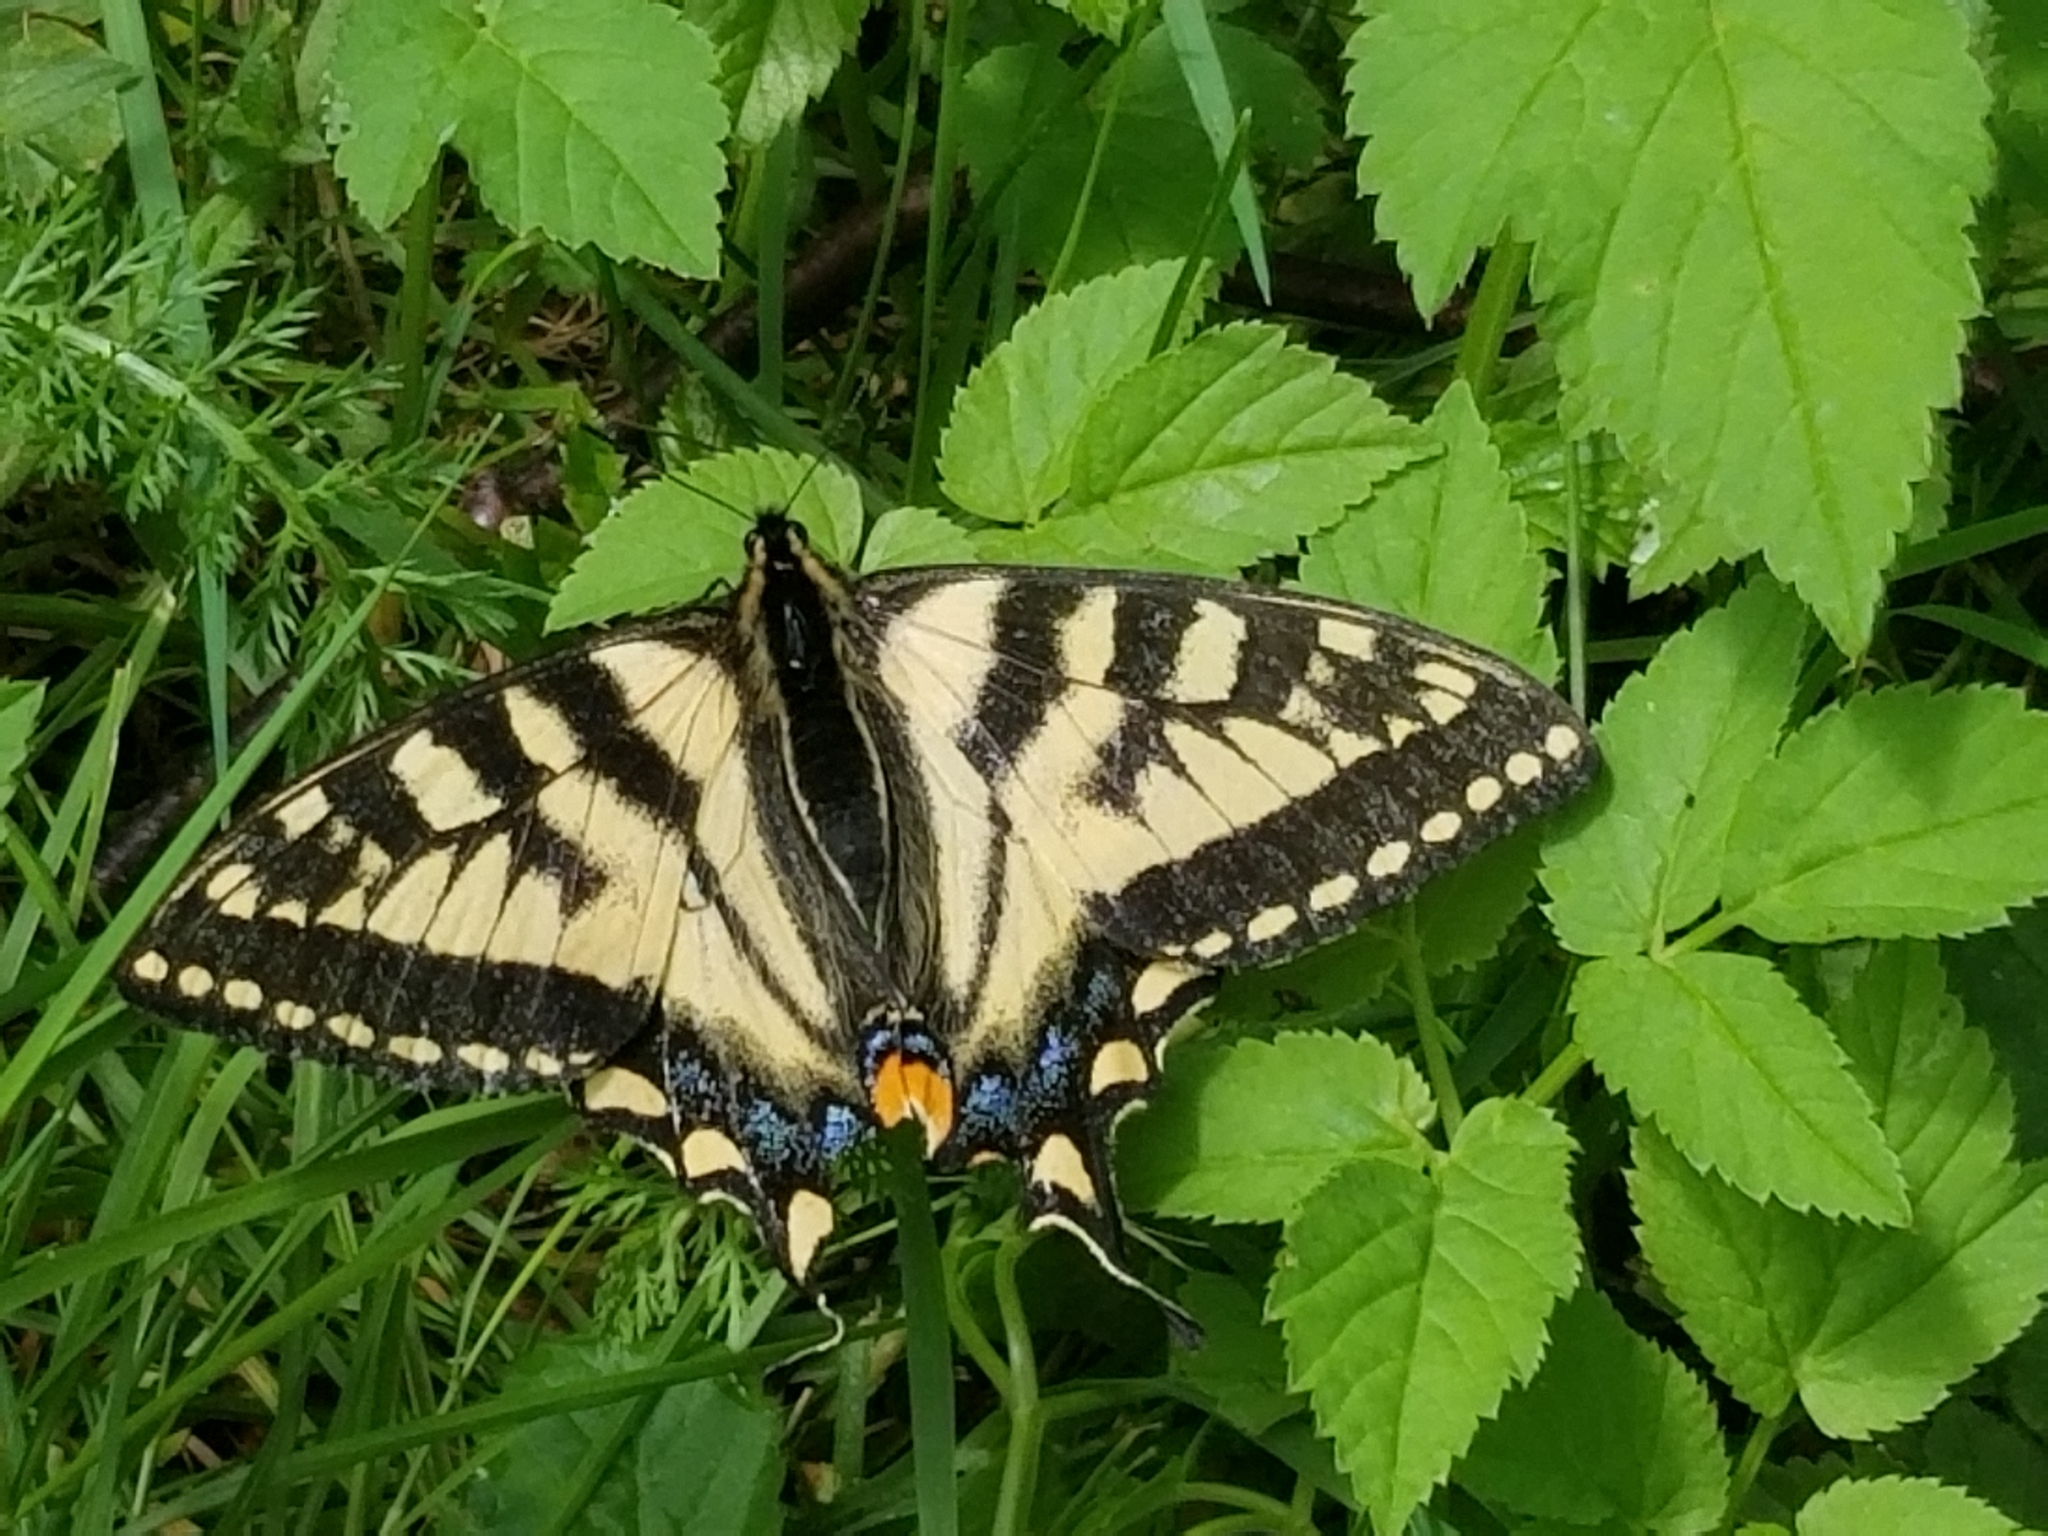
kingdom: Animalia
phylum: Arthropoda
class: Insecta
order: Lepidoptera
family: Papilionidae
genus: Papilio
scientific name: Papilio canadensis
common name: Canadian tiger swallowtail
